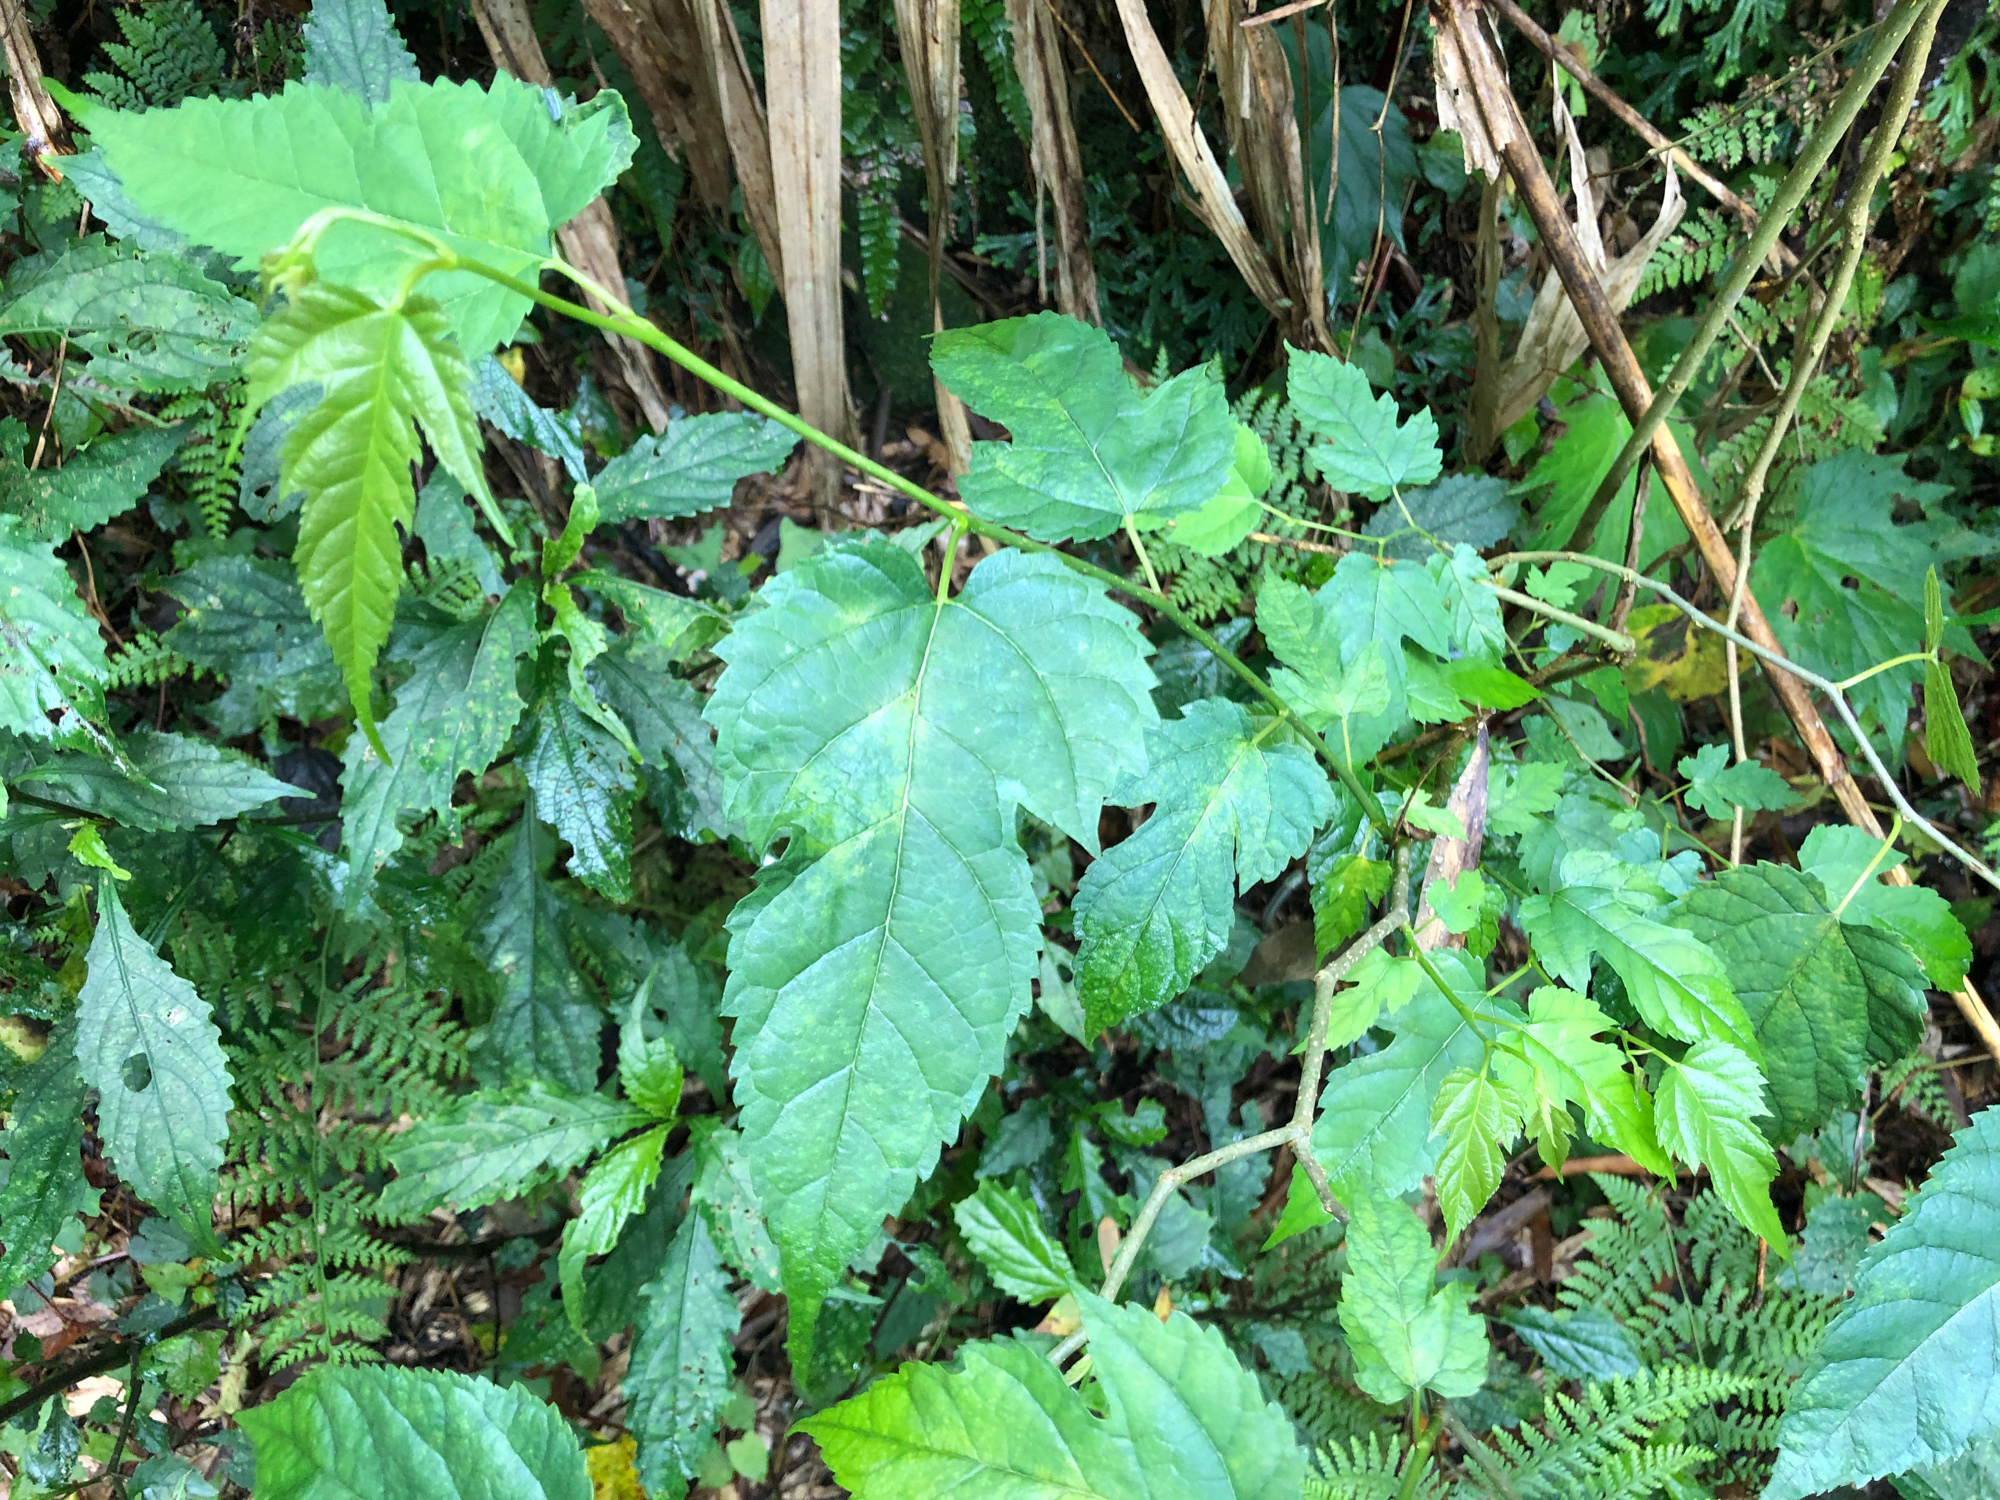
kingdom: Plantae
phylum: Tracheophyta
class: Magnoliopsida
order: Rosales
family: Moraceae
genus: Morus
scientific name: Morus indica
